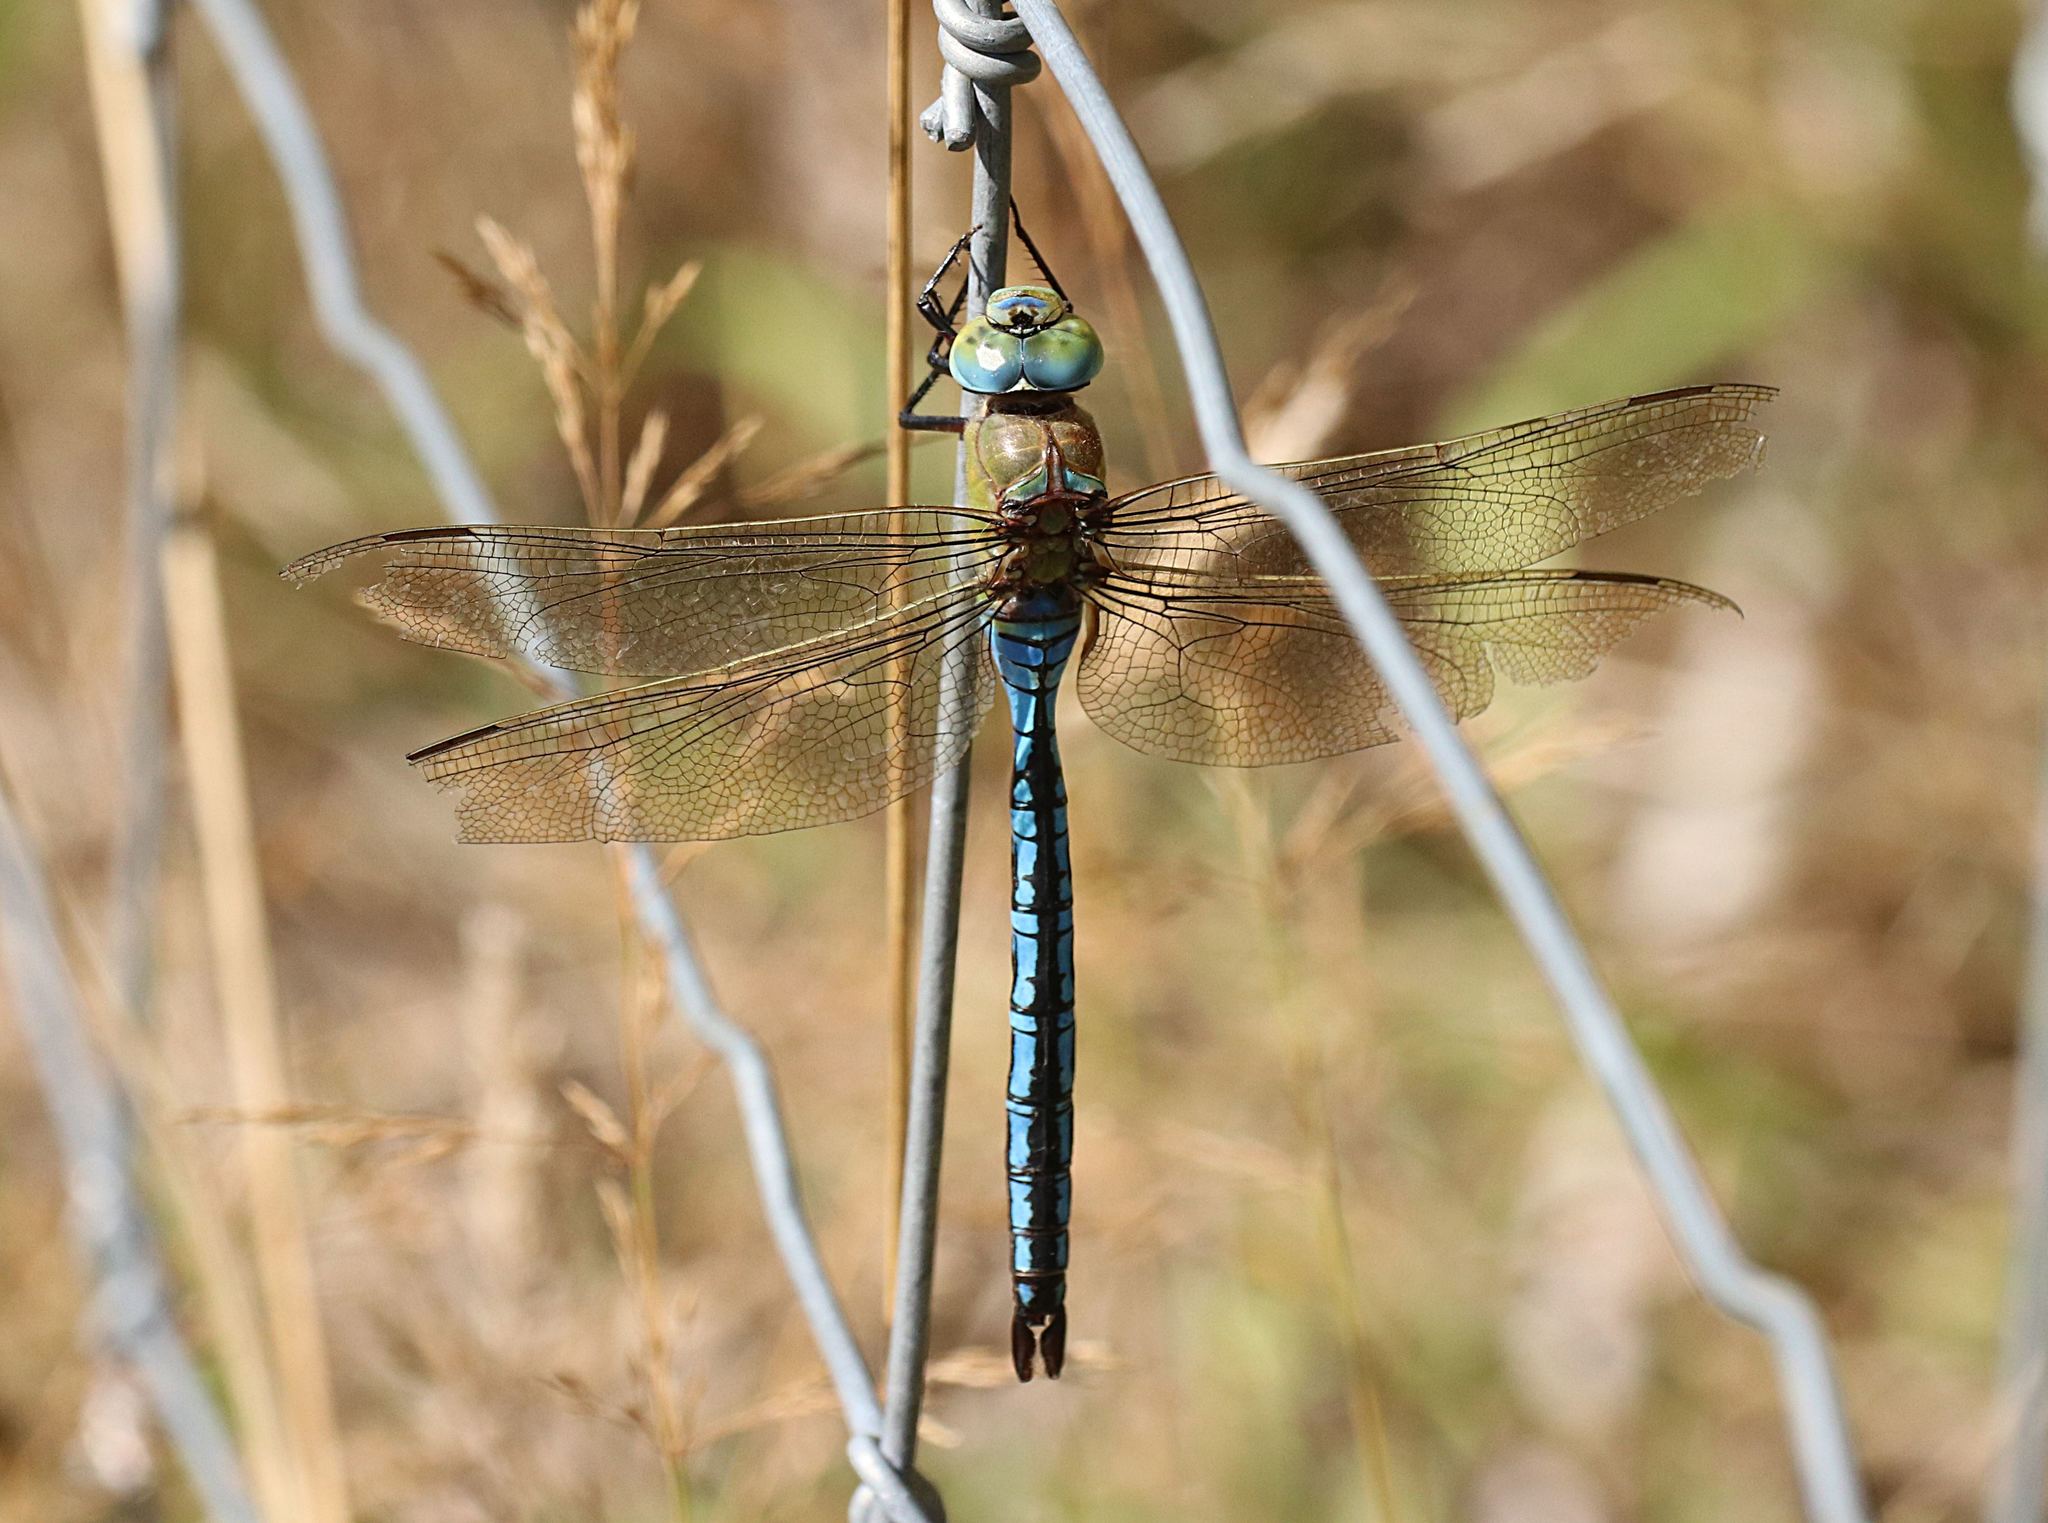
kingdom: Animalia
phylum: Arthropoda
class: Insecta
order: Odonata
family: Aeshnidae
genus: Anax
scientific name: Anax imperator
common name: Emperor dragonfly
